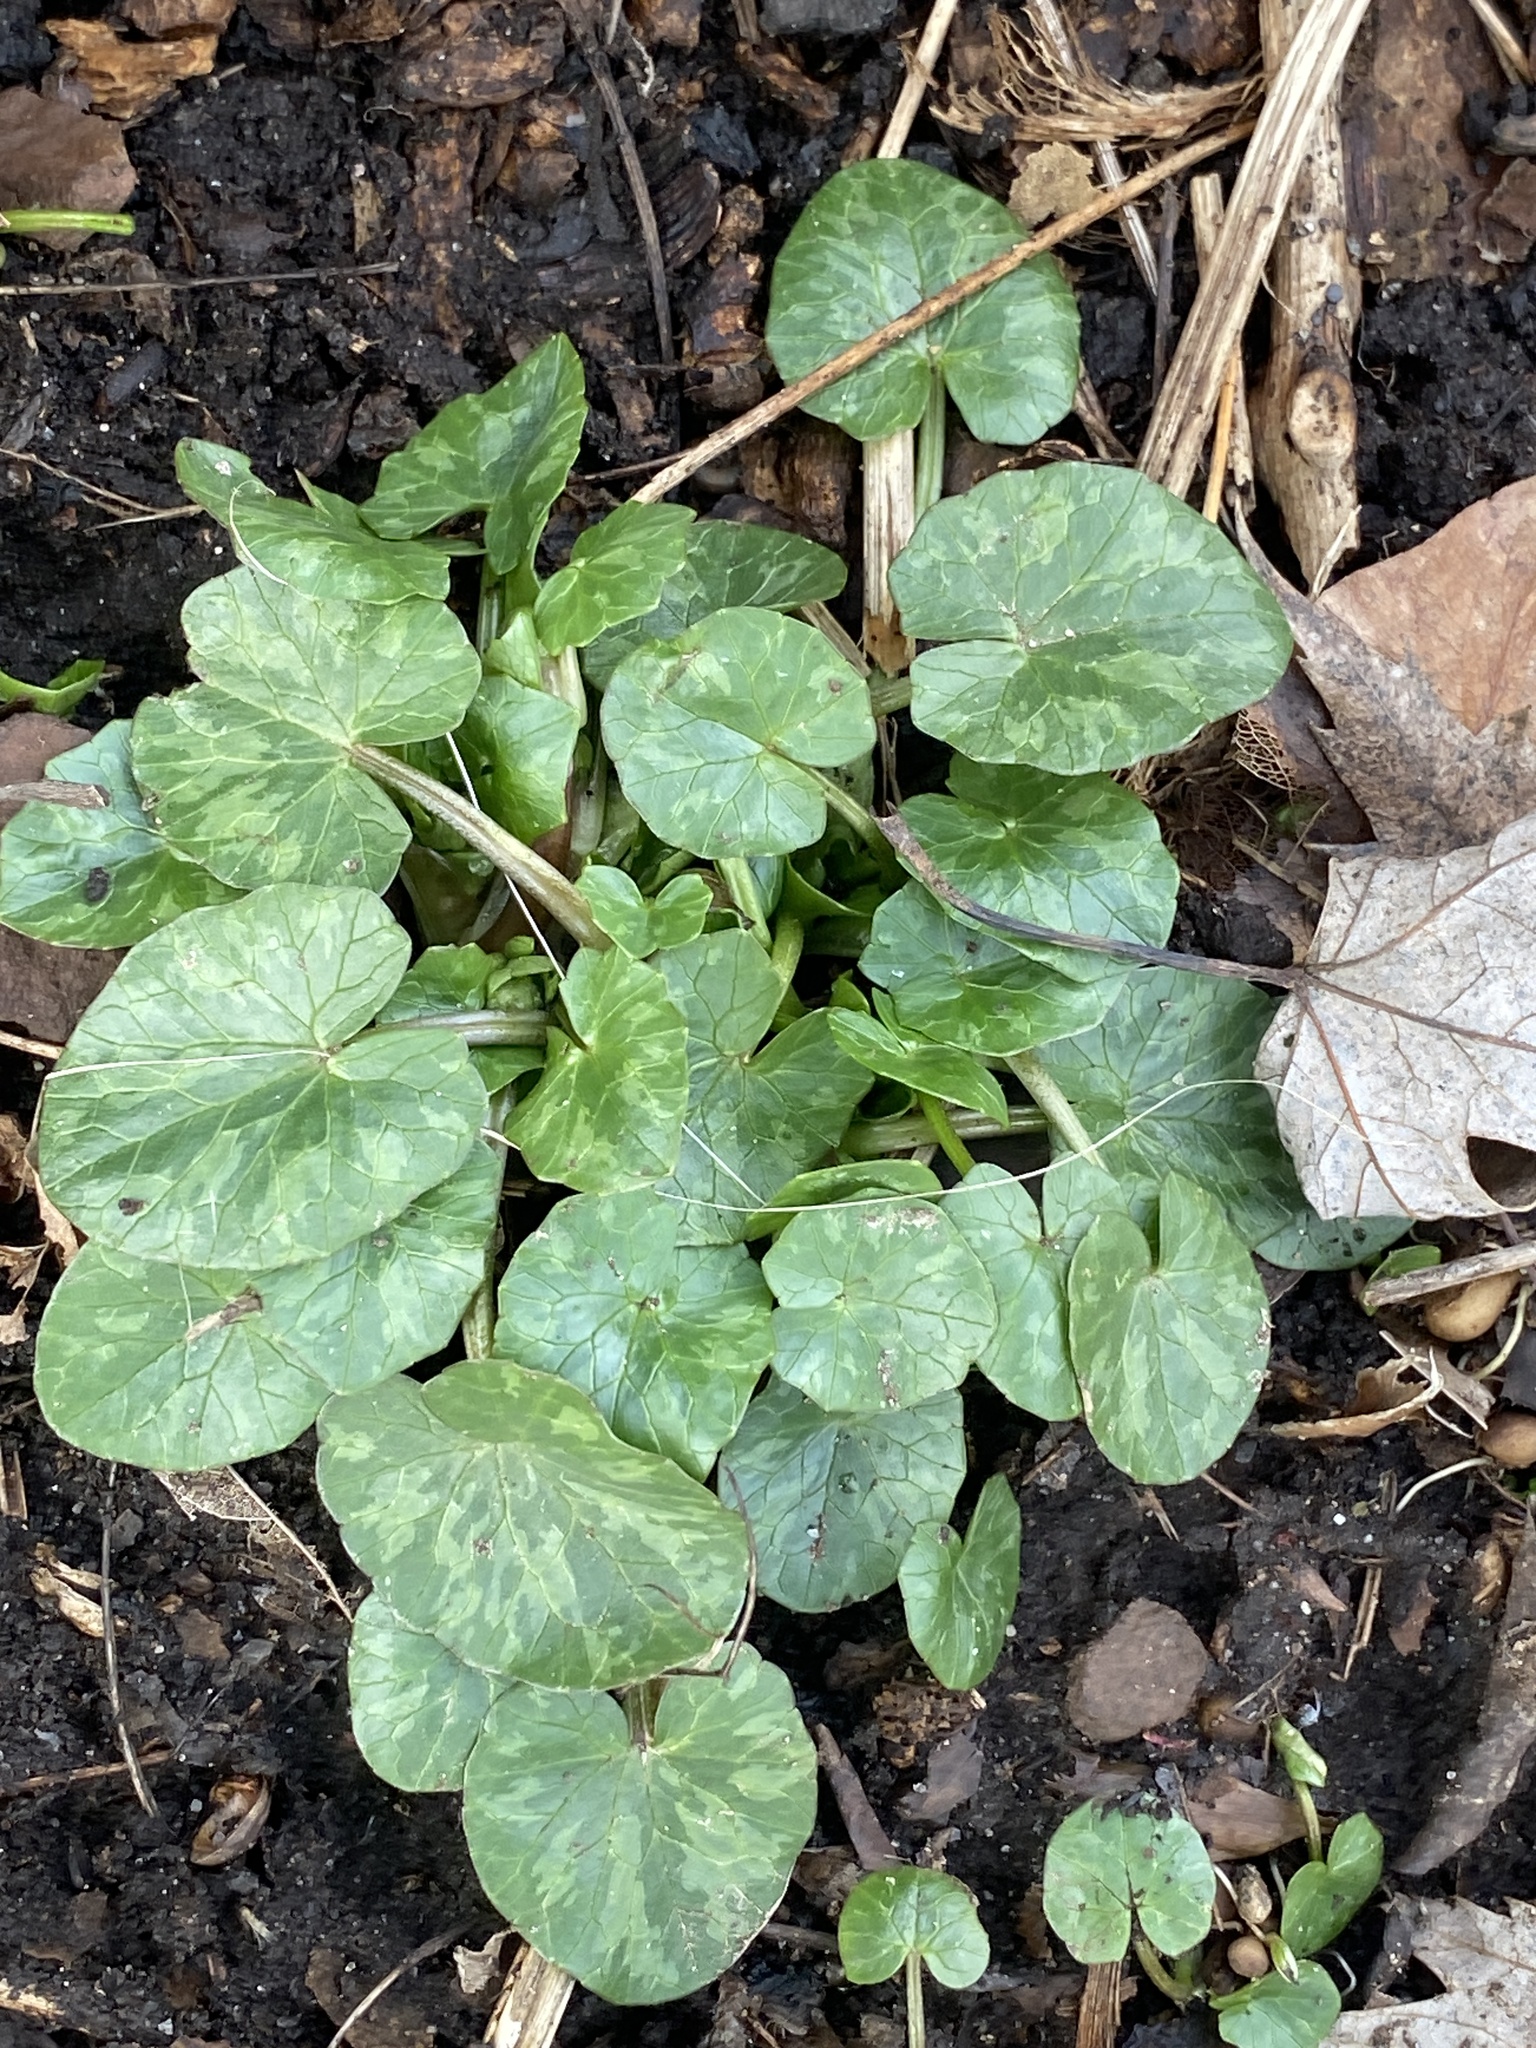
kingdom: Plantae
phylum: Tracheophyta
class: Magnoliopsida
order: Ranunculales
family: Ranunculaceae
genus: Ficaria
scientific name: Ficaria verna
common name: Lesser celandine
